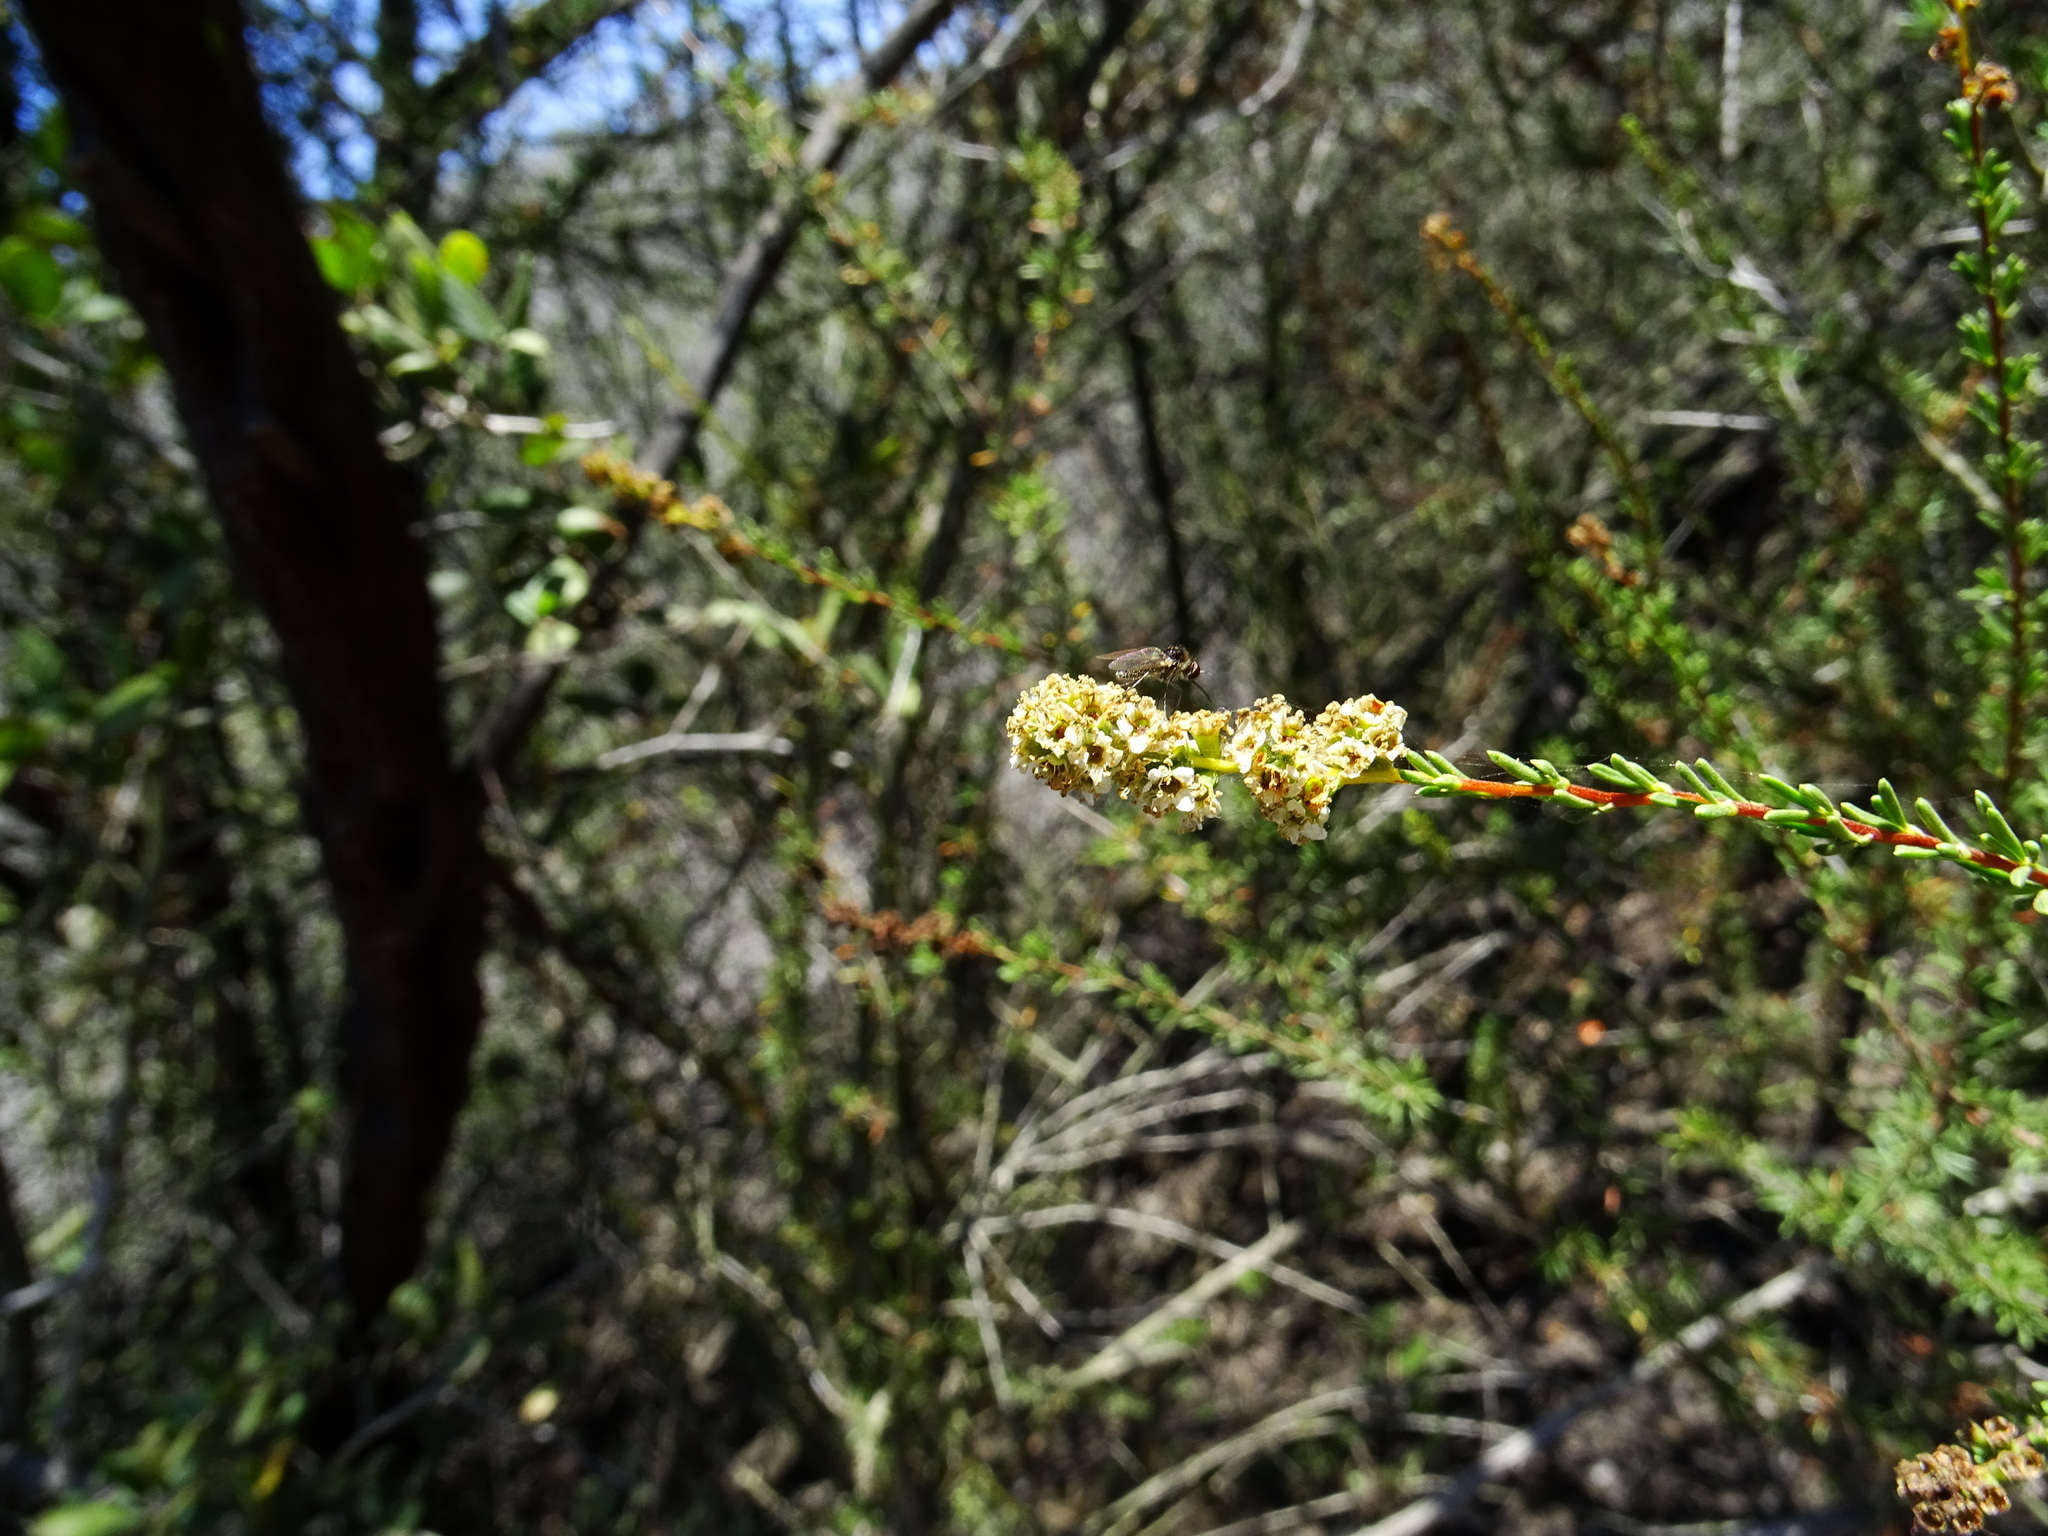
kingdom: Plantae
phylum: Tracheophyta
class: Magnoliopsida
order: Rosales
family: Rosaceae
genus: Adenostoma
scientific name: Adenostoma fasciculatum
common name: Chamise
